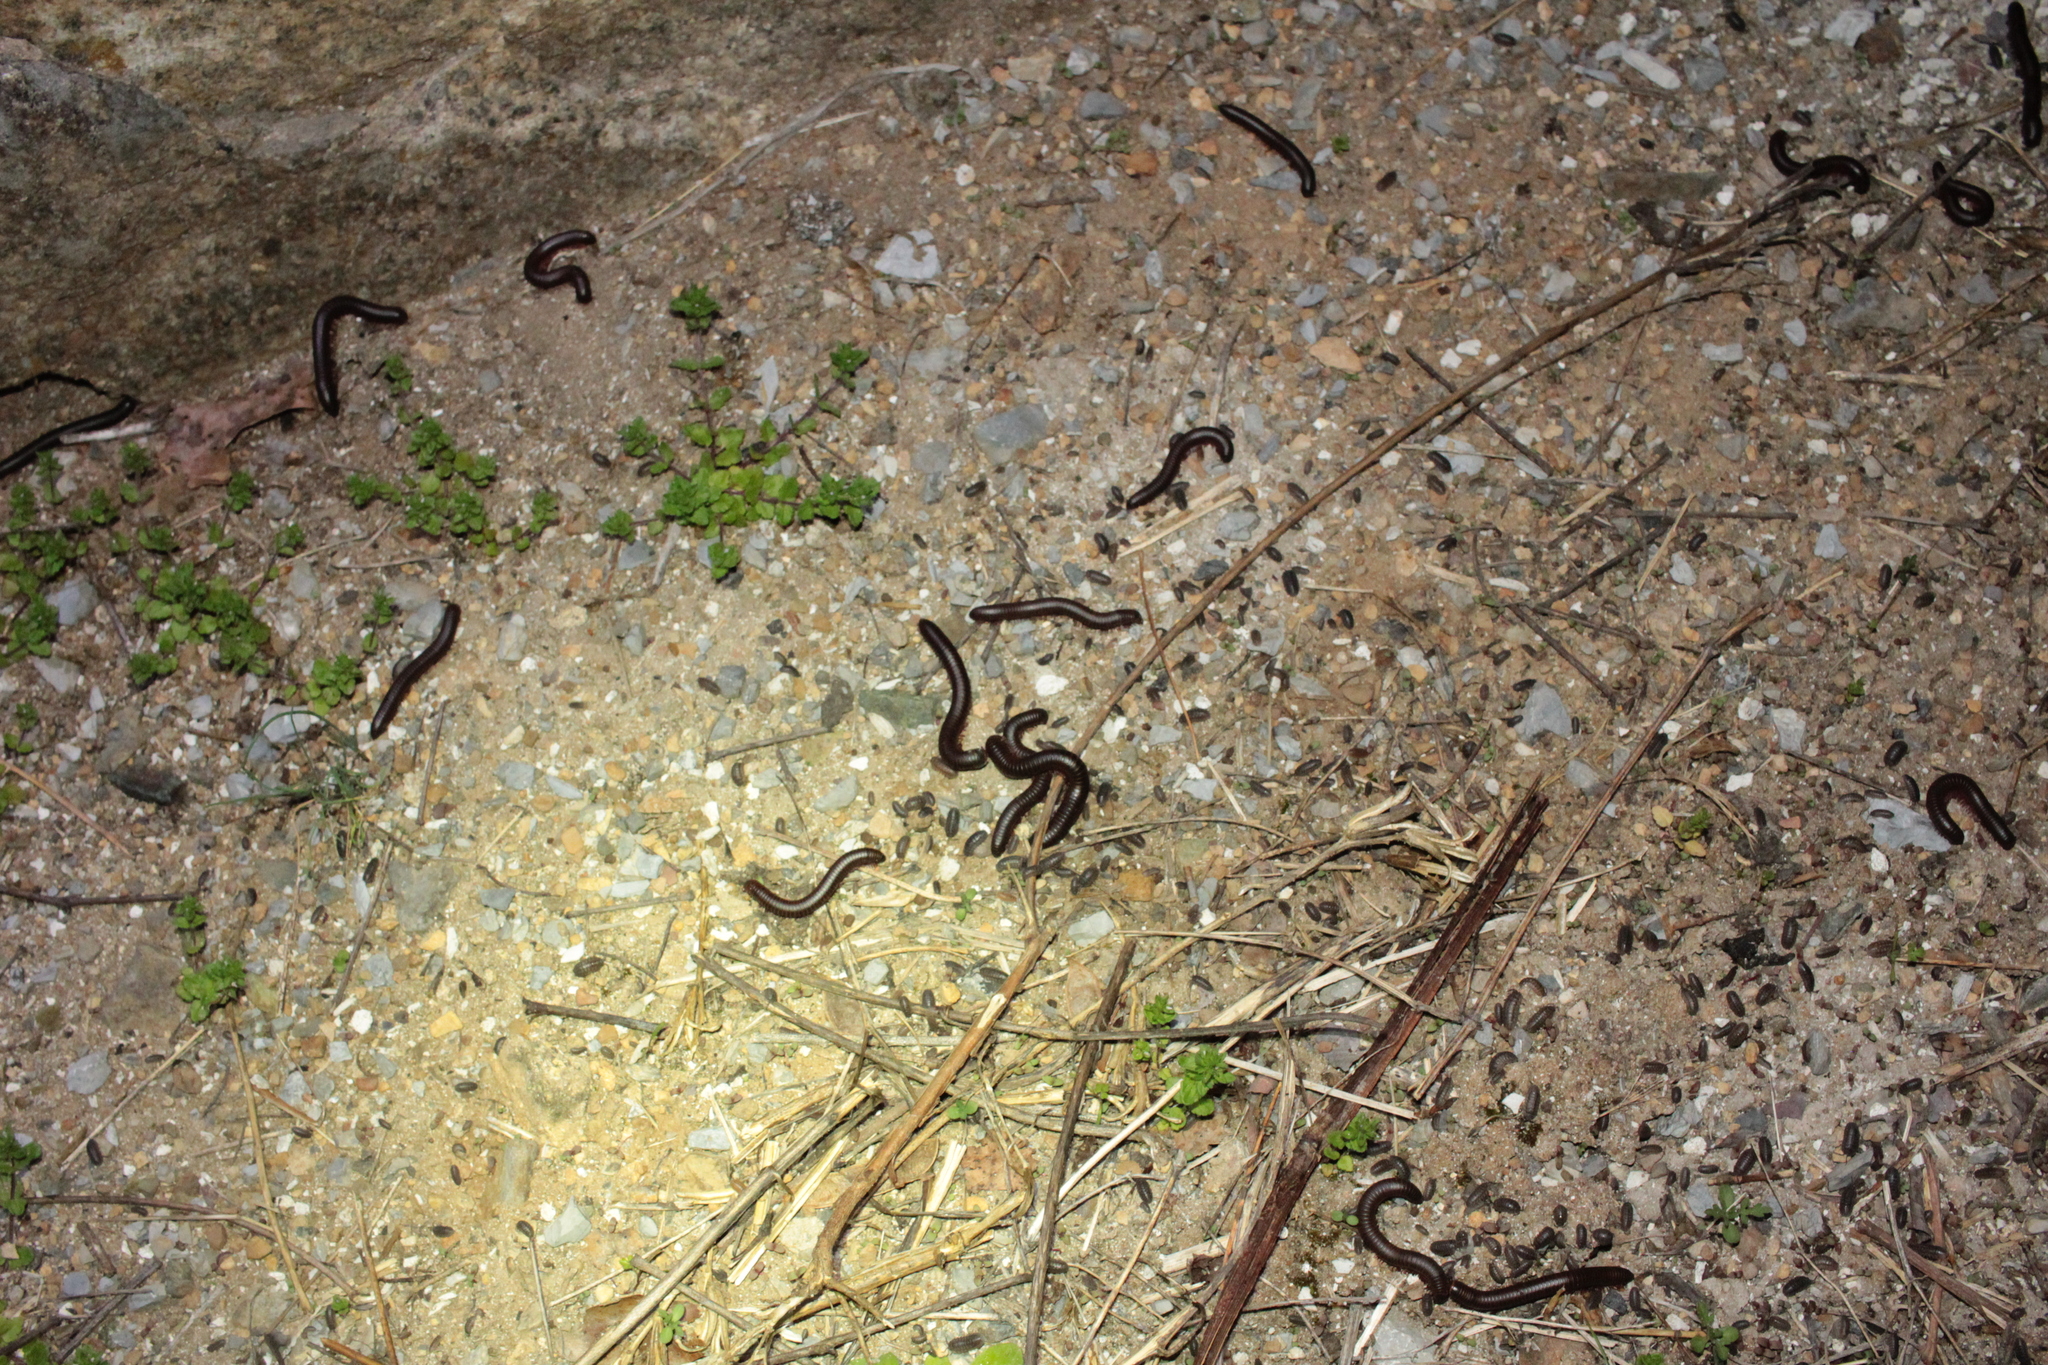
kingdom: Animalia
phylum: Arthropoda
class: Diplopoda
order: Spirobolida
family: Spirobolidae
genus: Narceus
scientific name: Narceus
